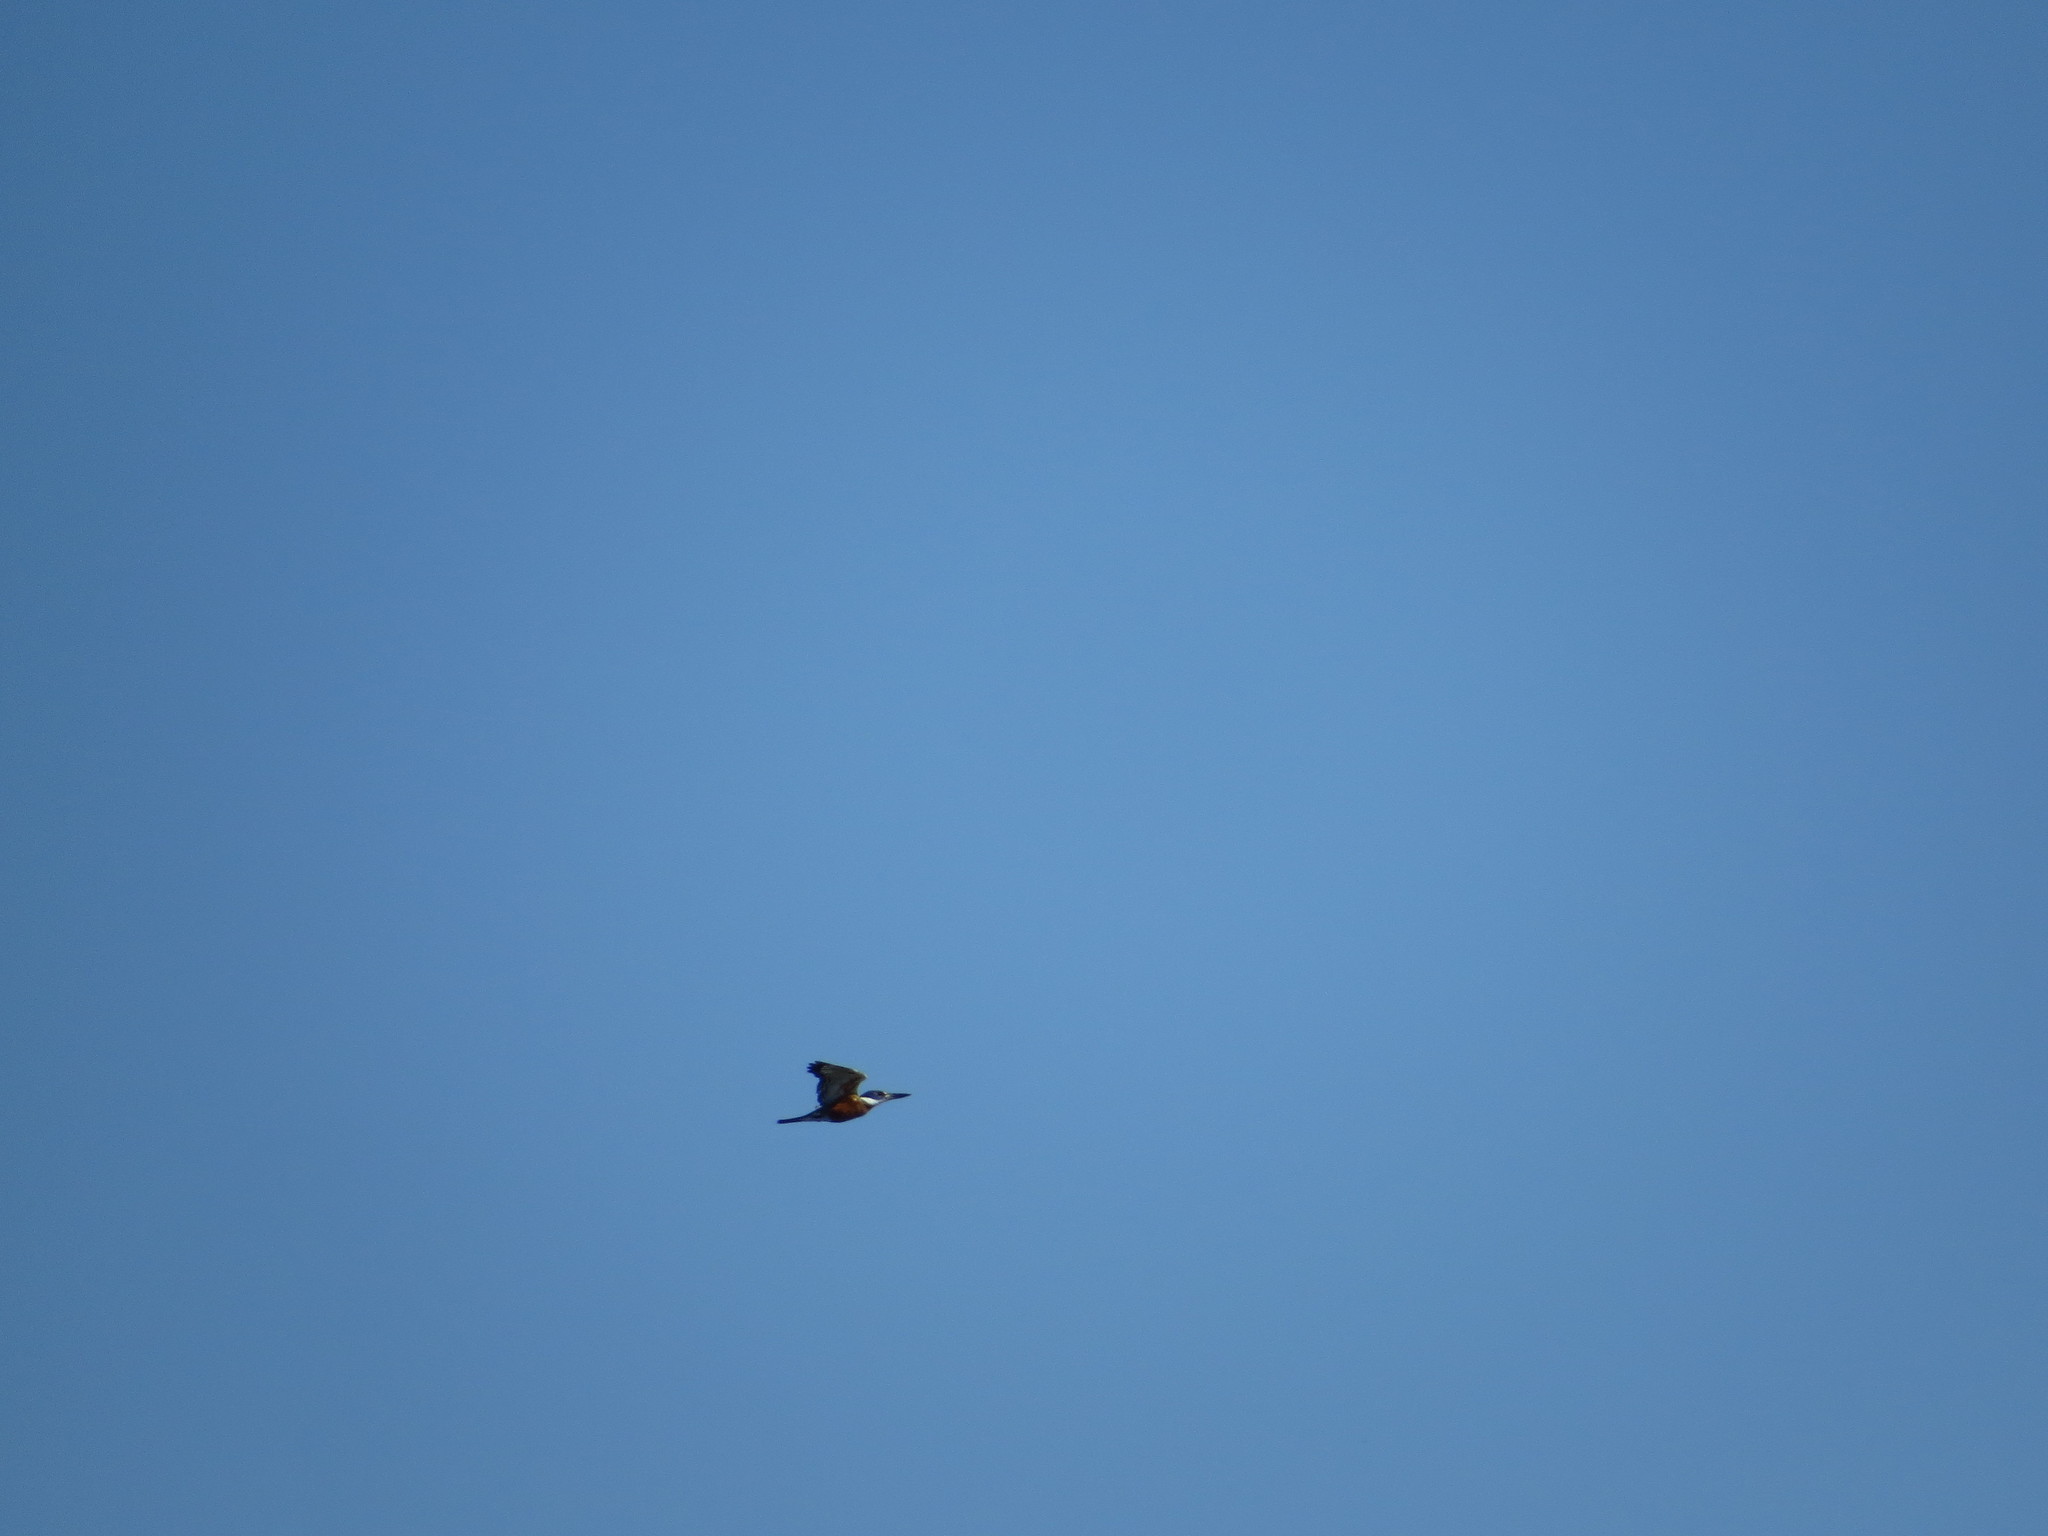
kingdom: Animalia
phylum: Chordata
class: Aves
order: Coraciiformes
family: Alcedinidae
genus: Megaceryle
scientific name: Megaceryle torquata
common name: Ringed kingfisher
